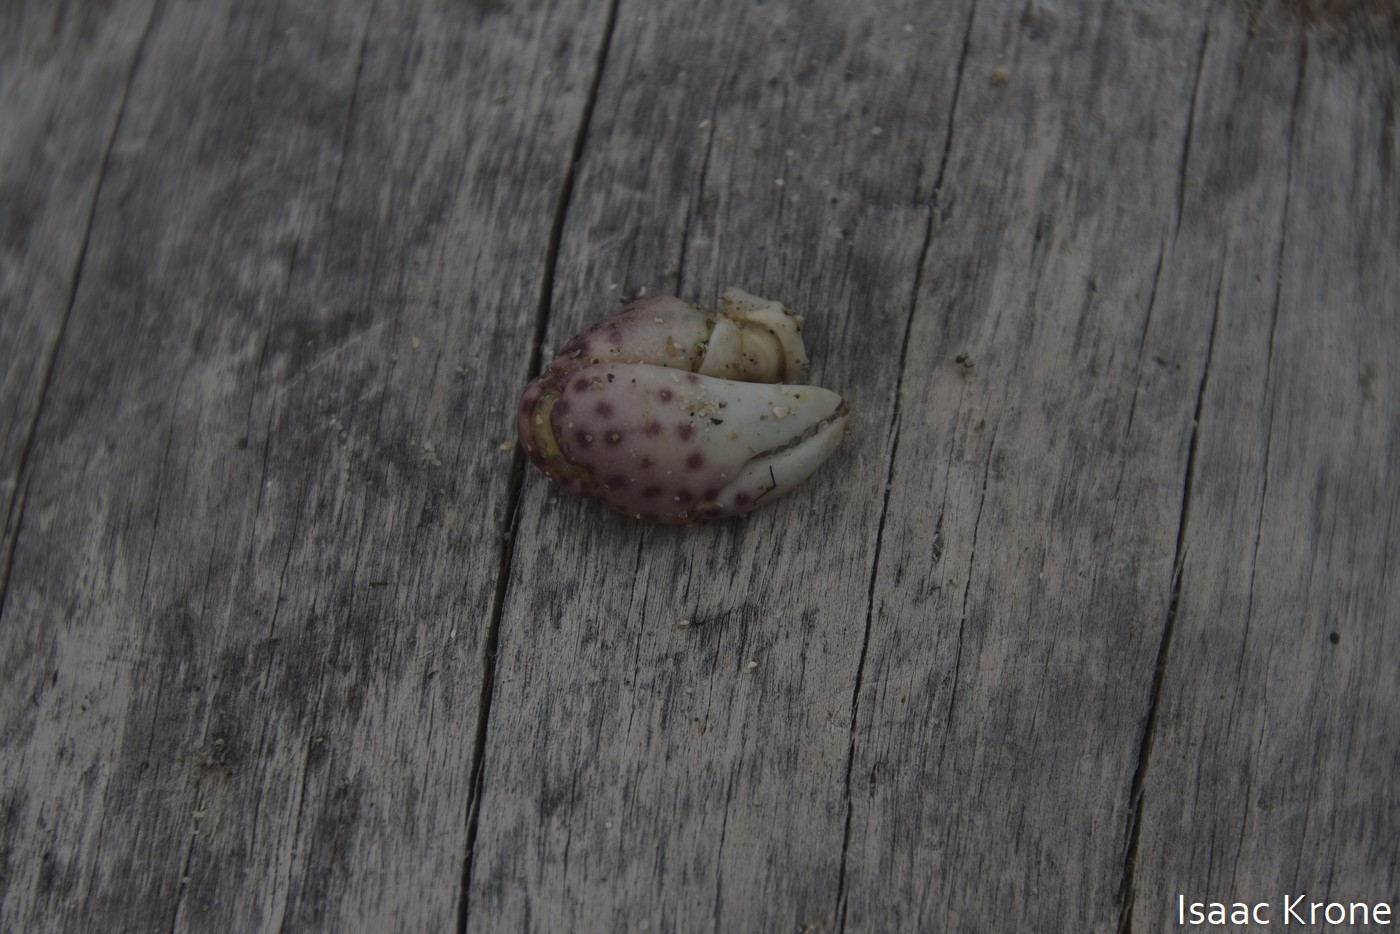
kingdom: Animalia
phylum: Arthropoda
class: Malacostraca
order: Decapoda
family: Varunidae
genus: Hemigrapsus
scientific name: Hemigrapsus nudus
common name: Purple shore crab
